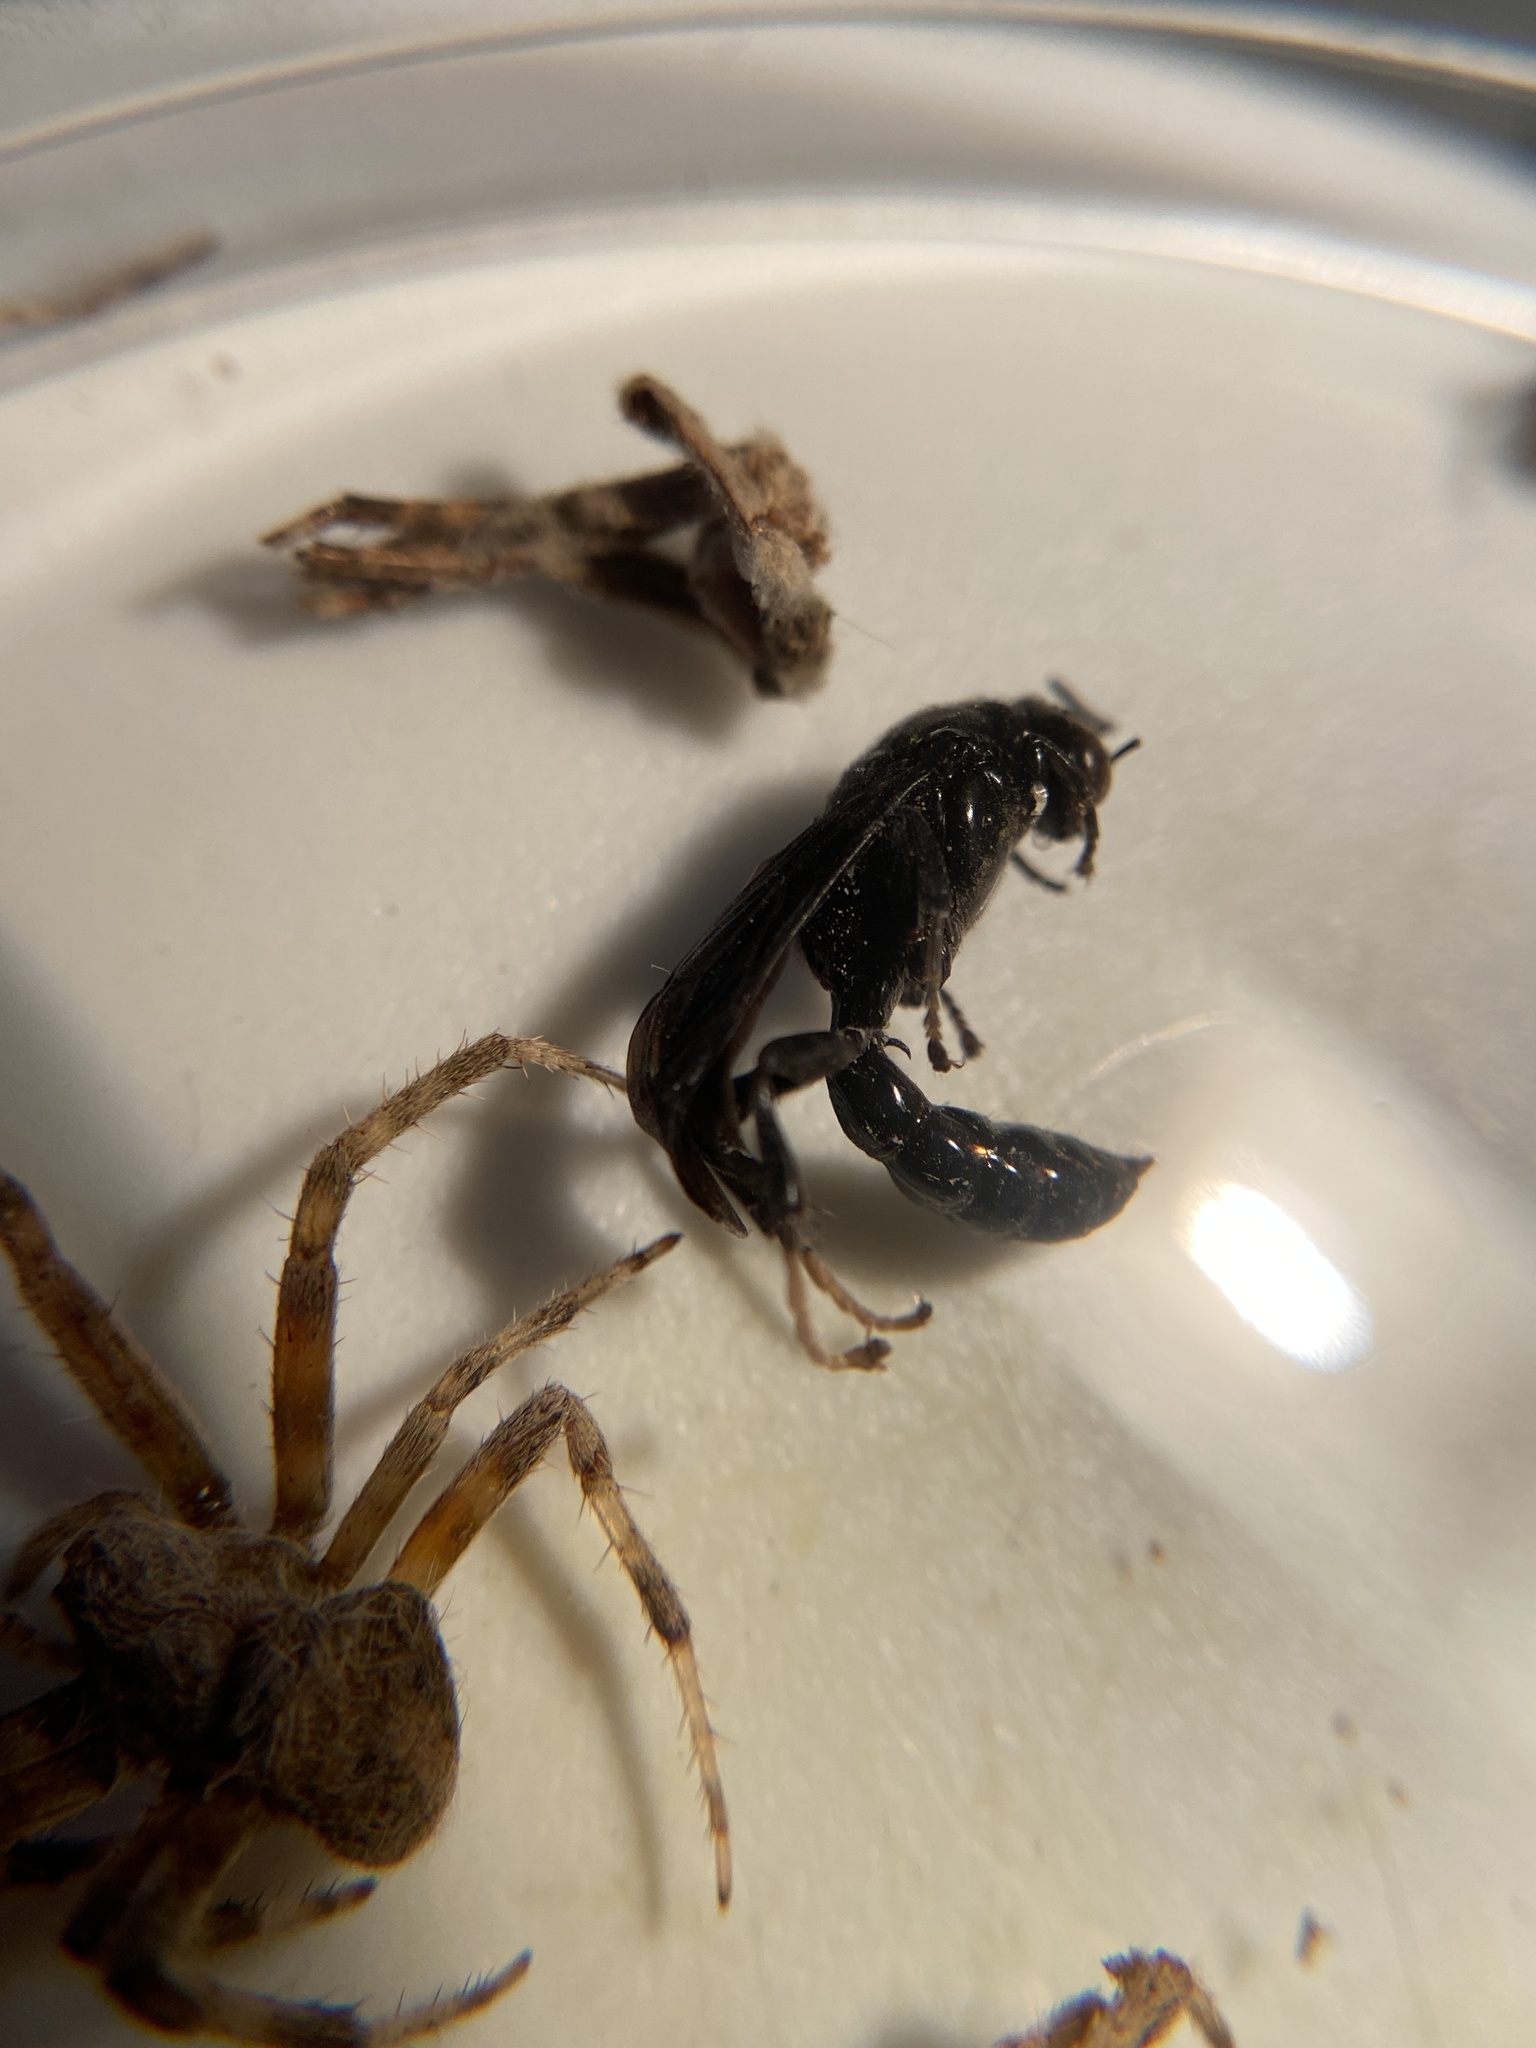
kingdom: Animalia
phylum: Arthropoda
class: Insecta
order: Hymenoptera
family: Crabronidae
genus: Trypoxylon
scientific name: Trypoxylon politum
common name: Organ-pipe mud-dauber wasp
